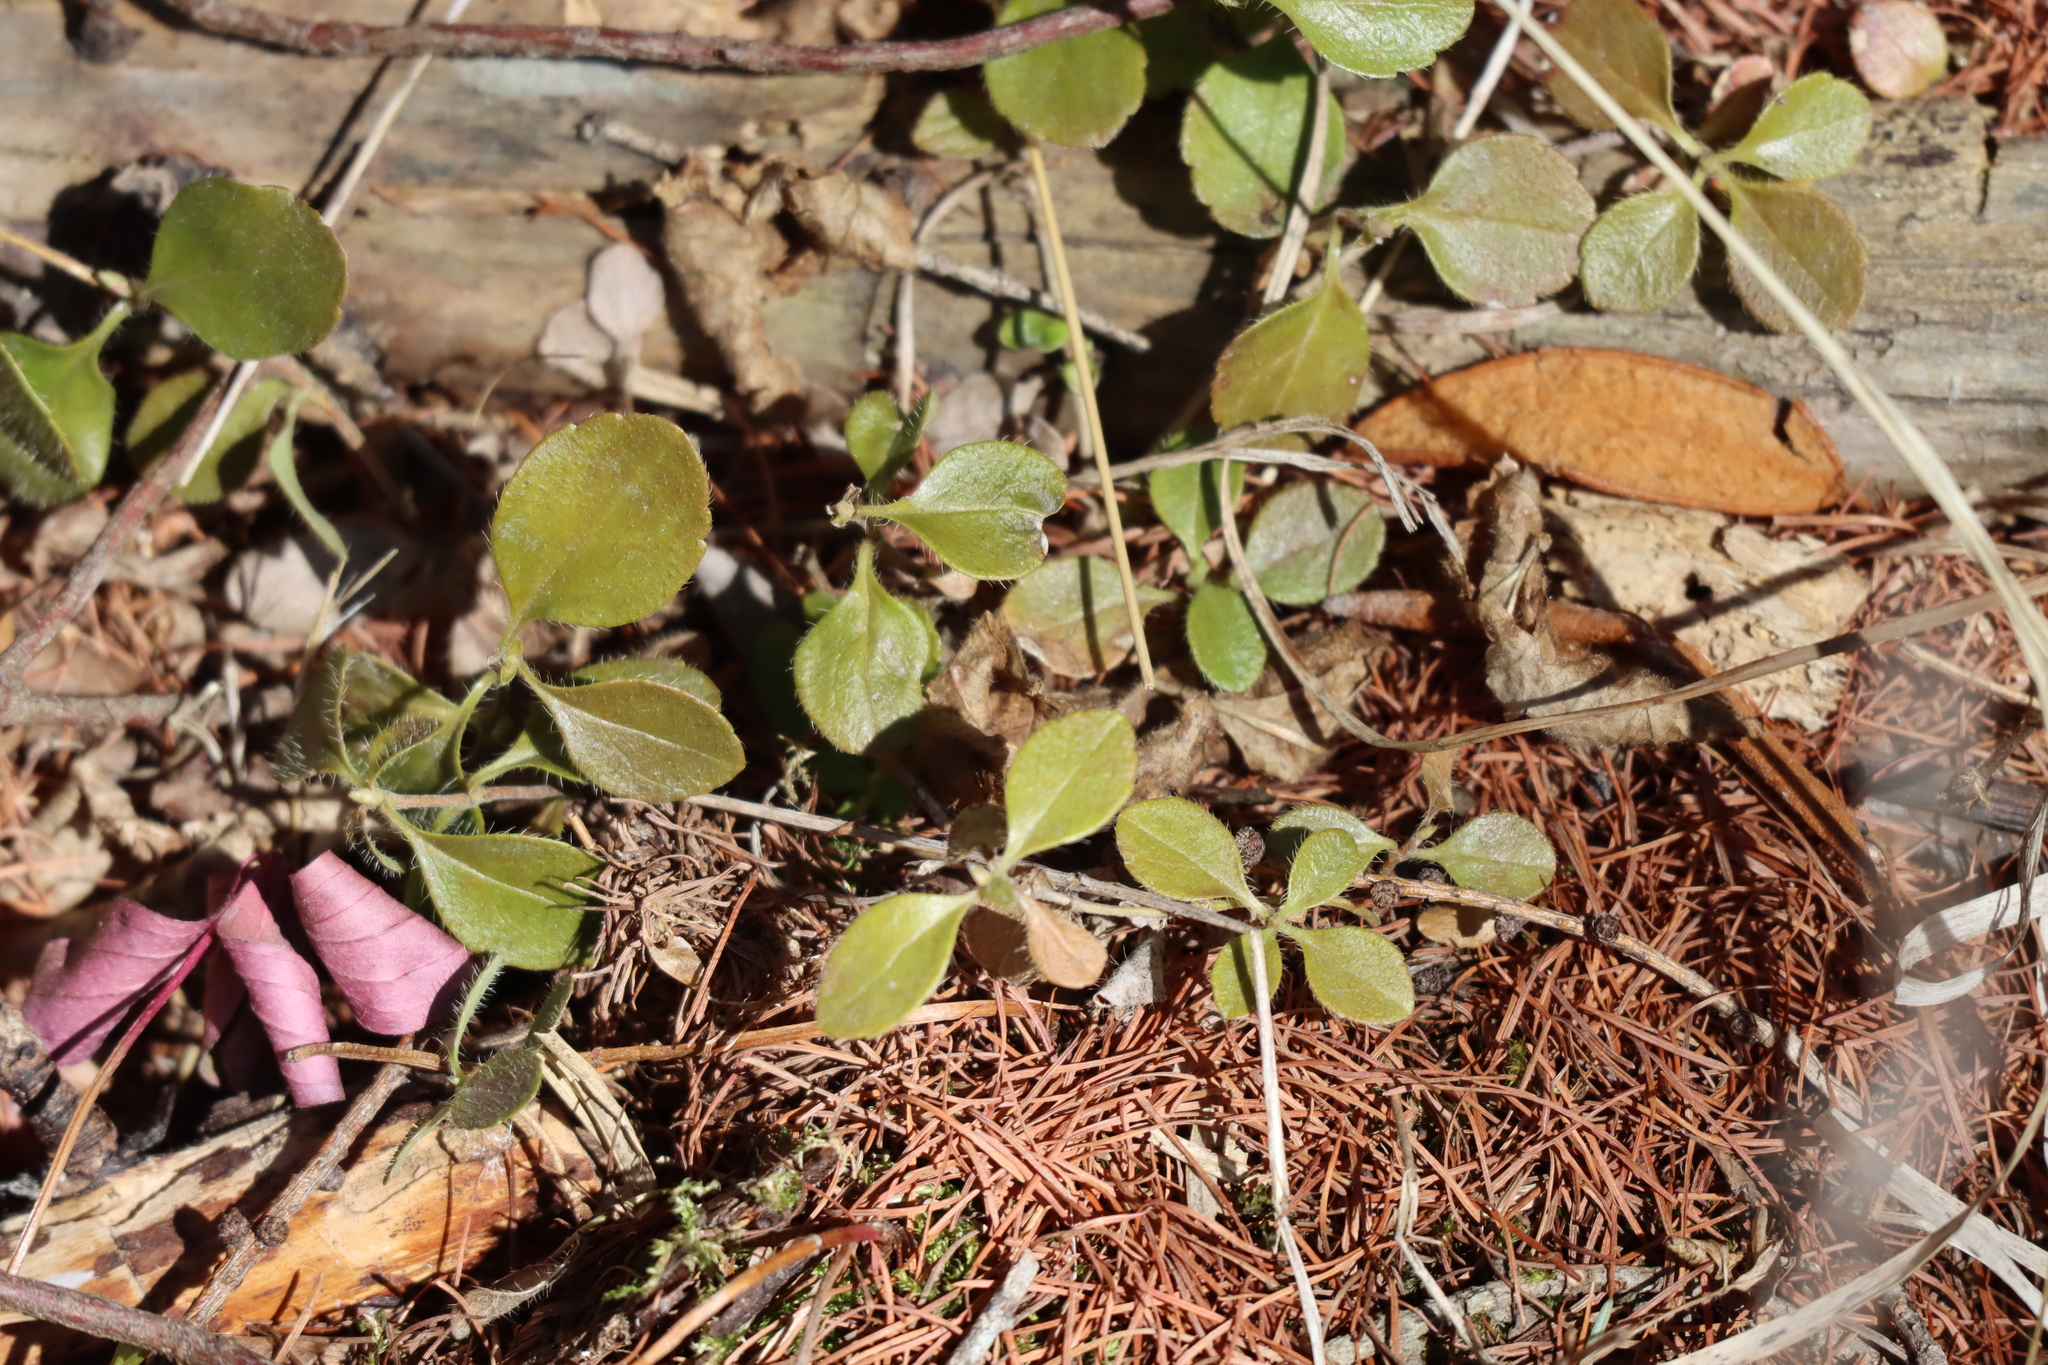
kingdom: Plantae
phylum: Tracheophyta
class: Magnoliopsida
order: Dipsacales
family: Caprifoliaceae
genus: Linnaea
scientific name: Linnaea borealis
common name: Twinflower
